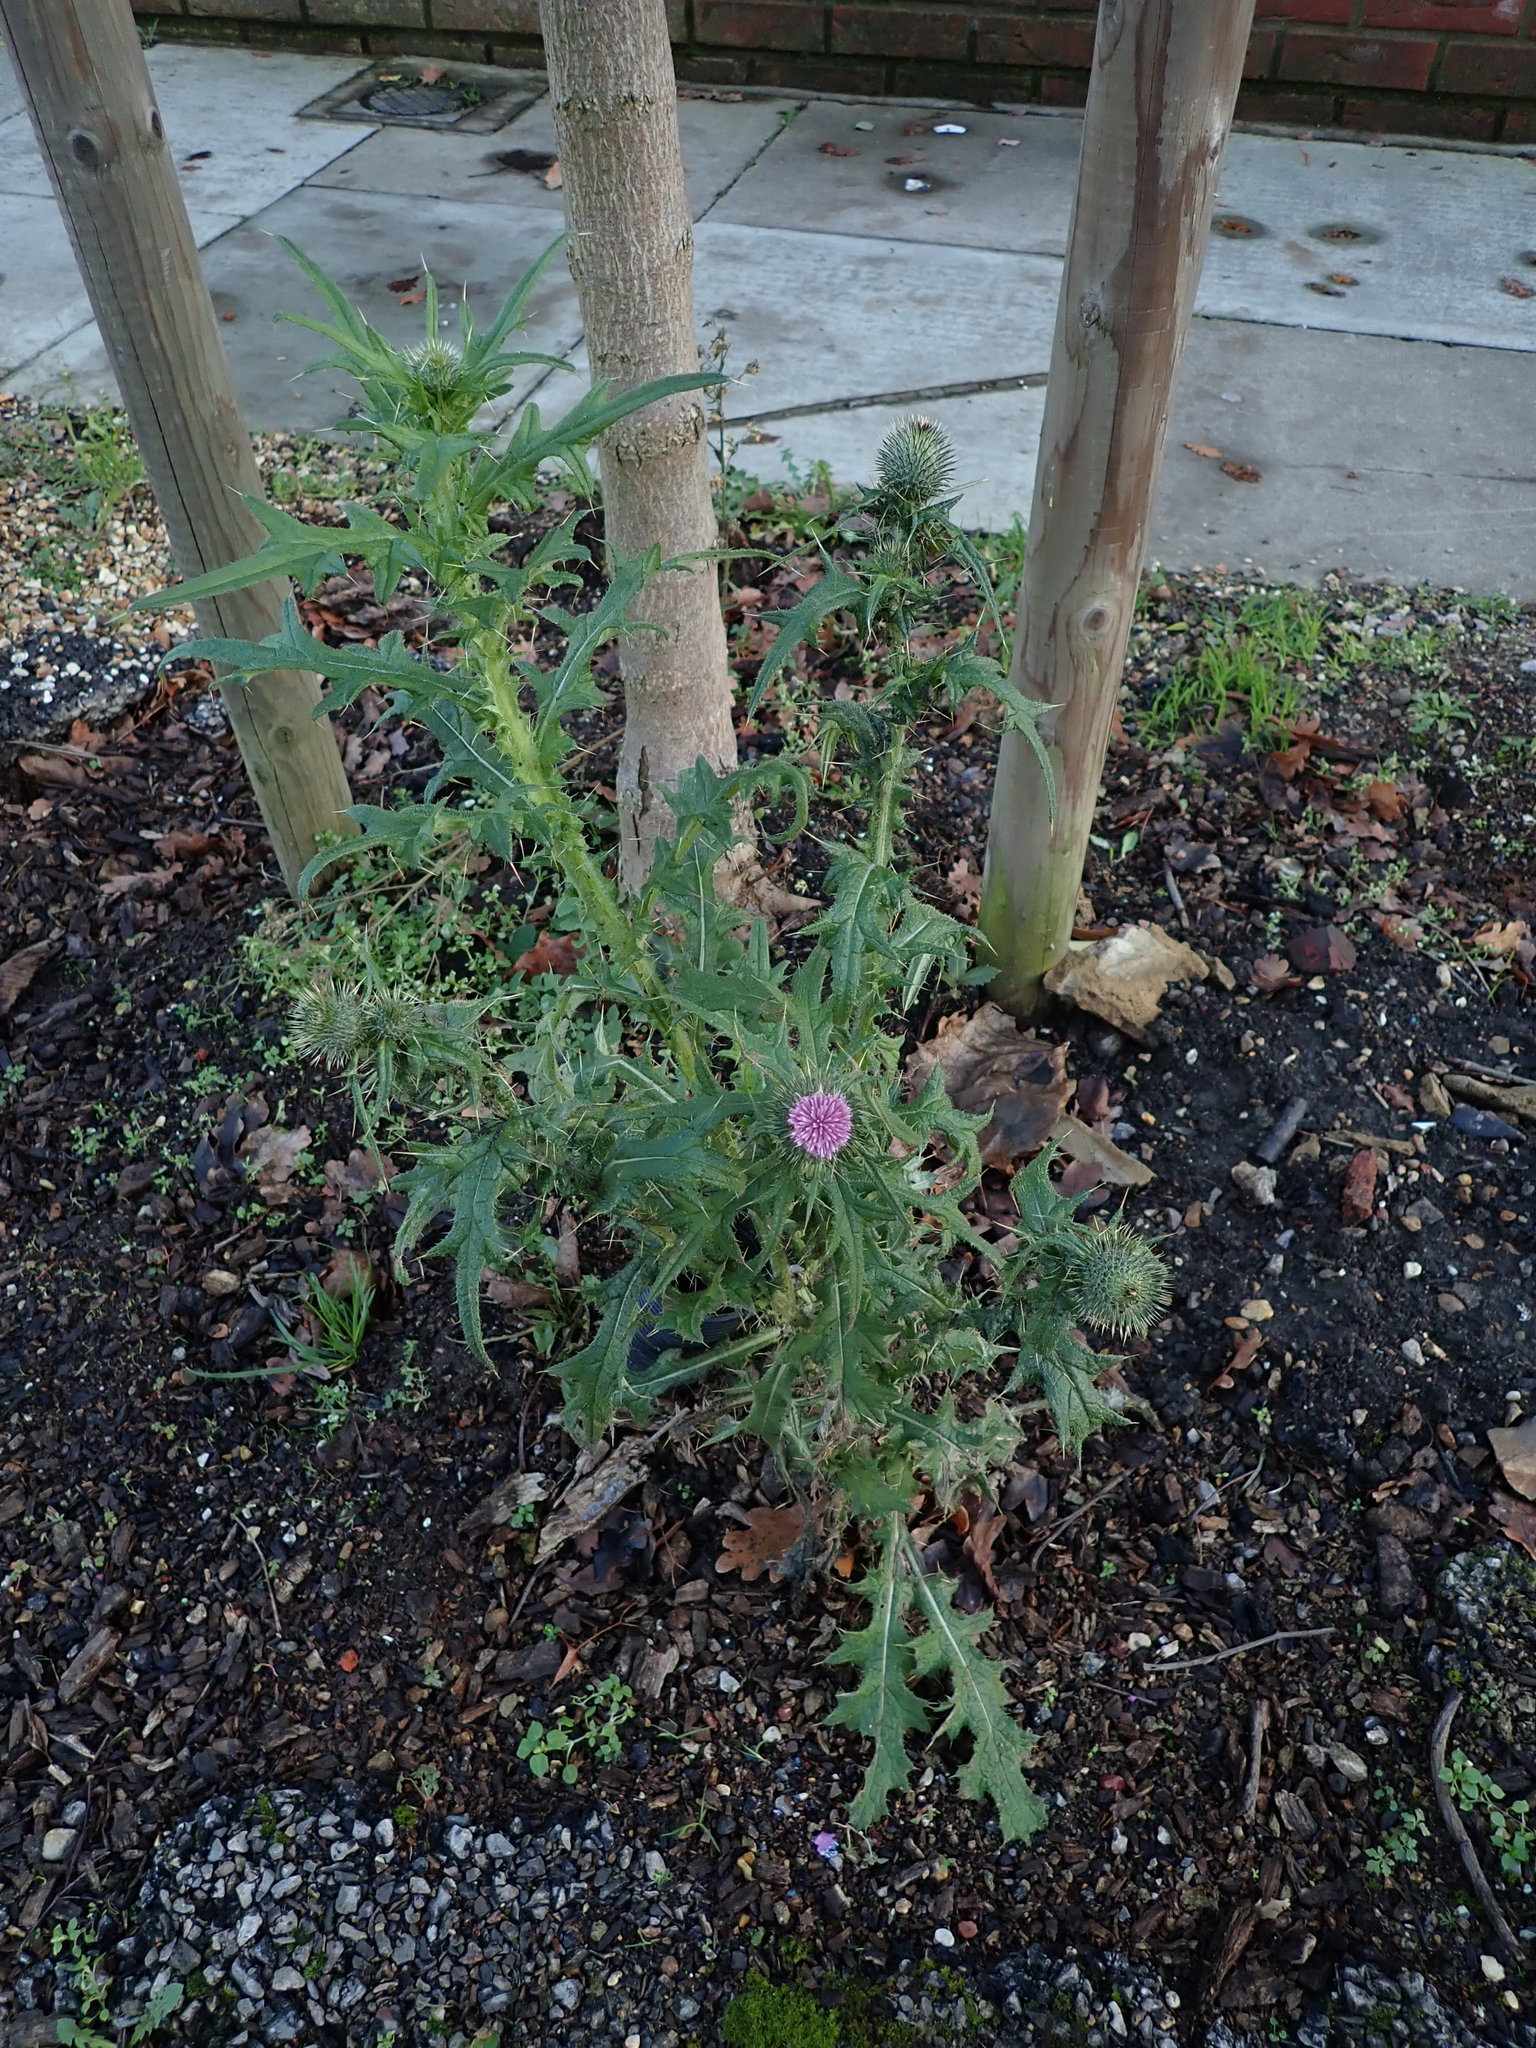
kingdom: Plantae
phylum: Tracheophyta
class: Magnoliopsida
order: Asterales
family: Asteraceae
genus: Cirsium
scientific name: Cirsium vulgare
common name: Bull thistle
